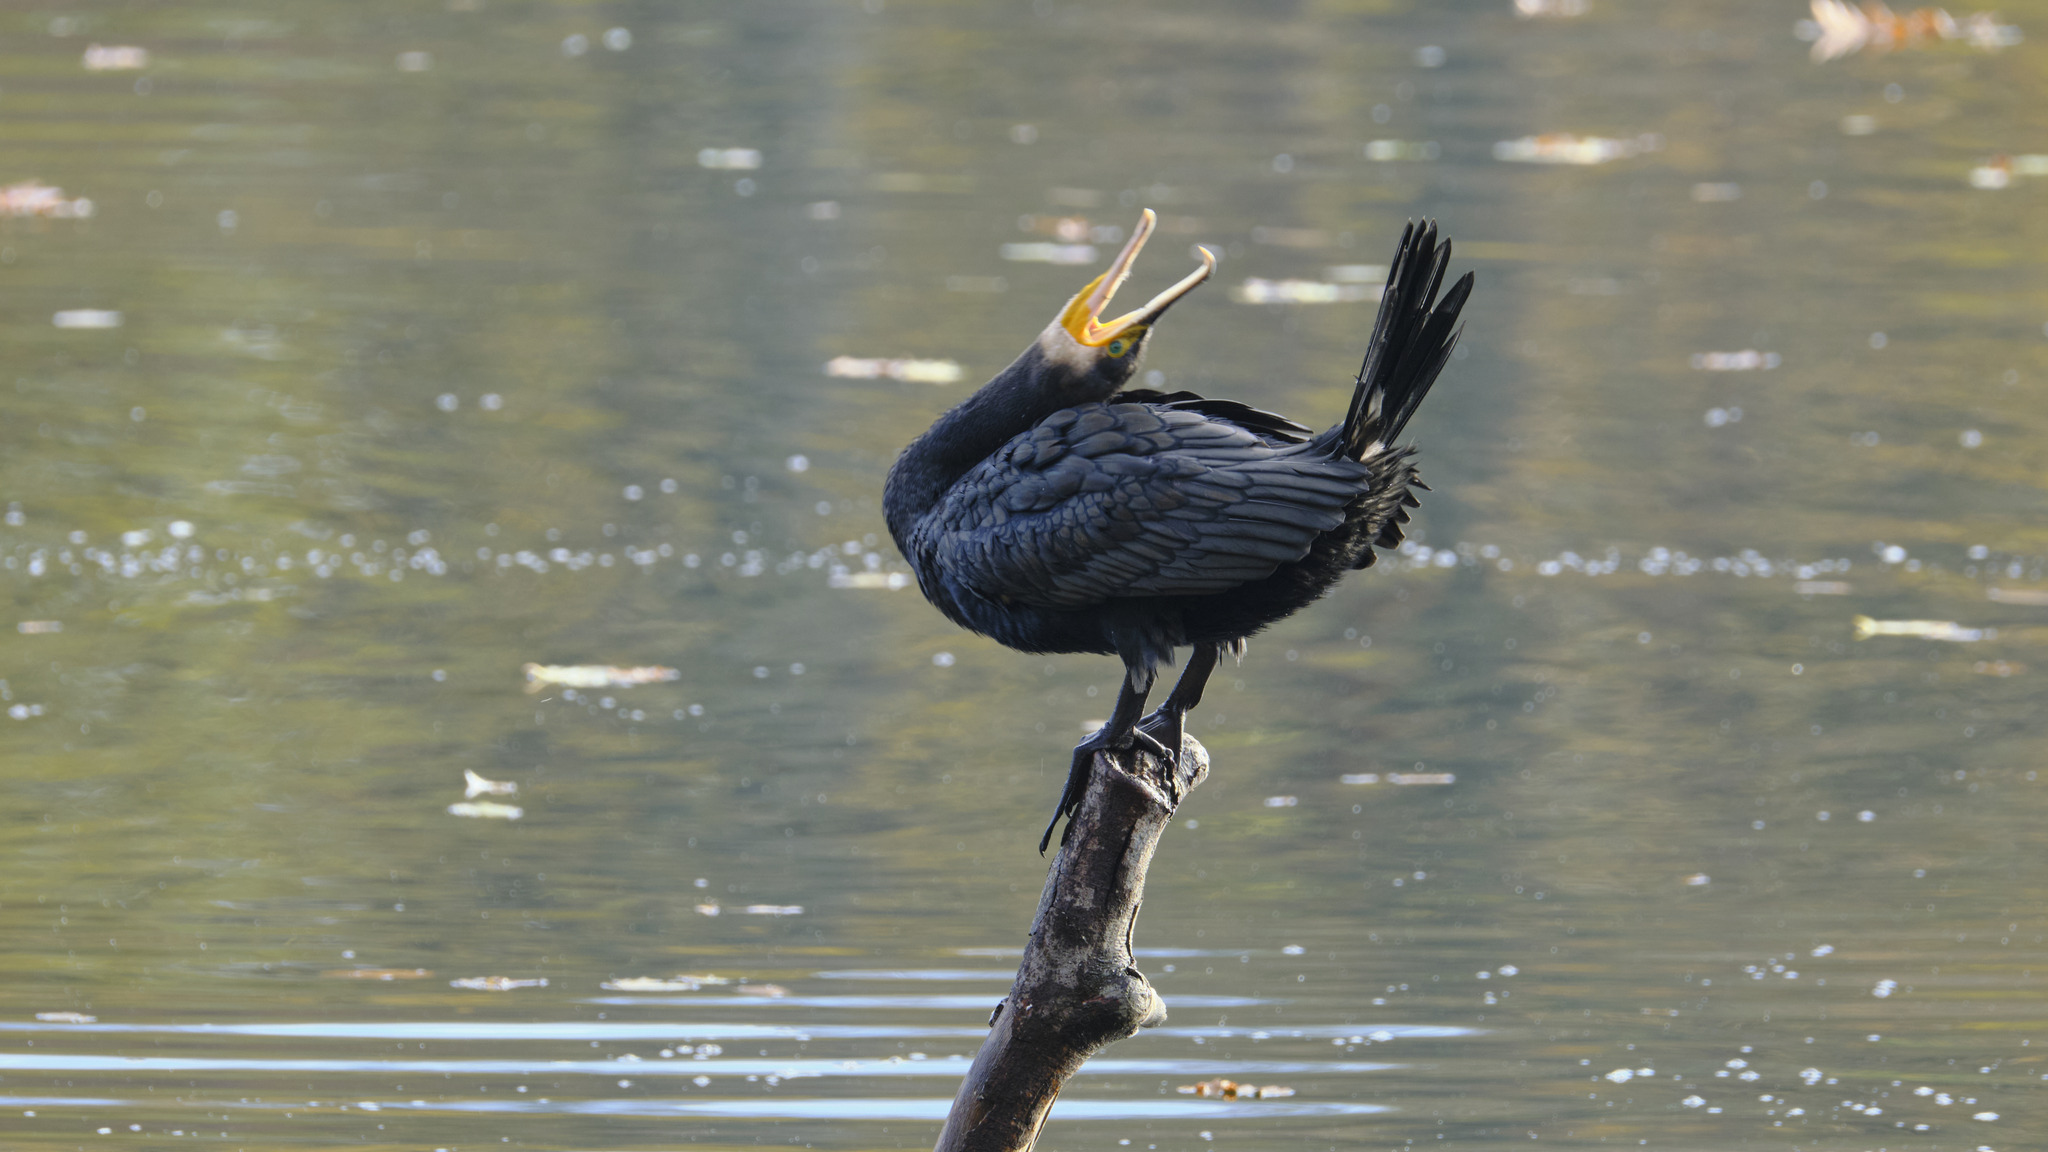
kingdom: Animalia
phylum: Chordata
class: Aves
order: Suliformes
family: Phalacrocoracidae
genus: Phalacrocorax
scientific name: Phalacrocorax carbo
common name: Great cormorant
